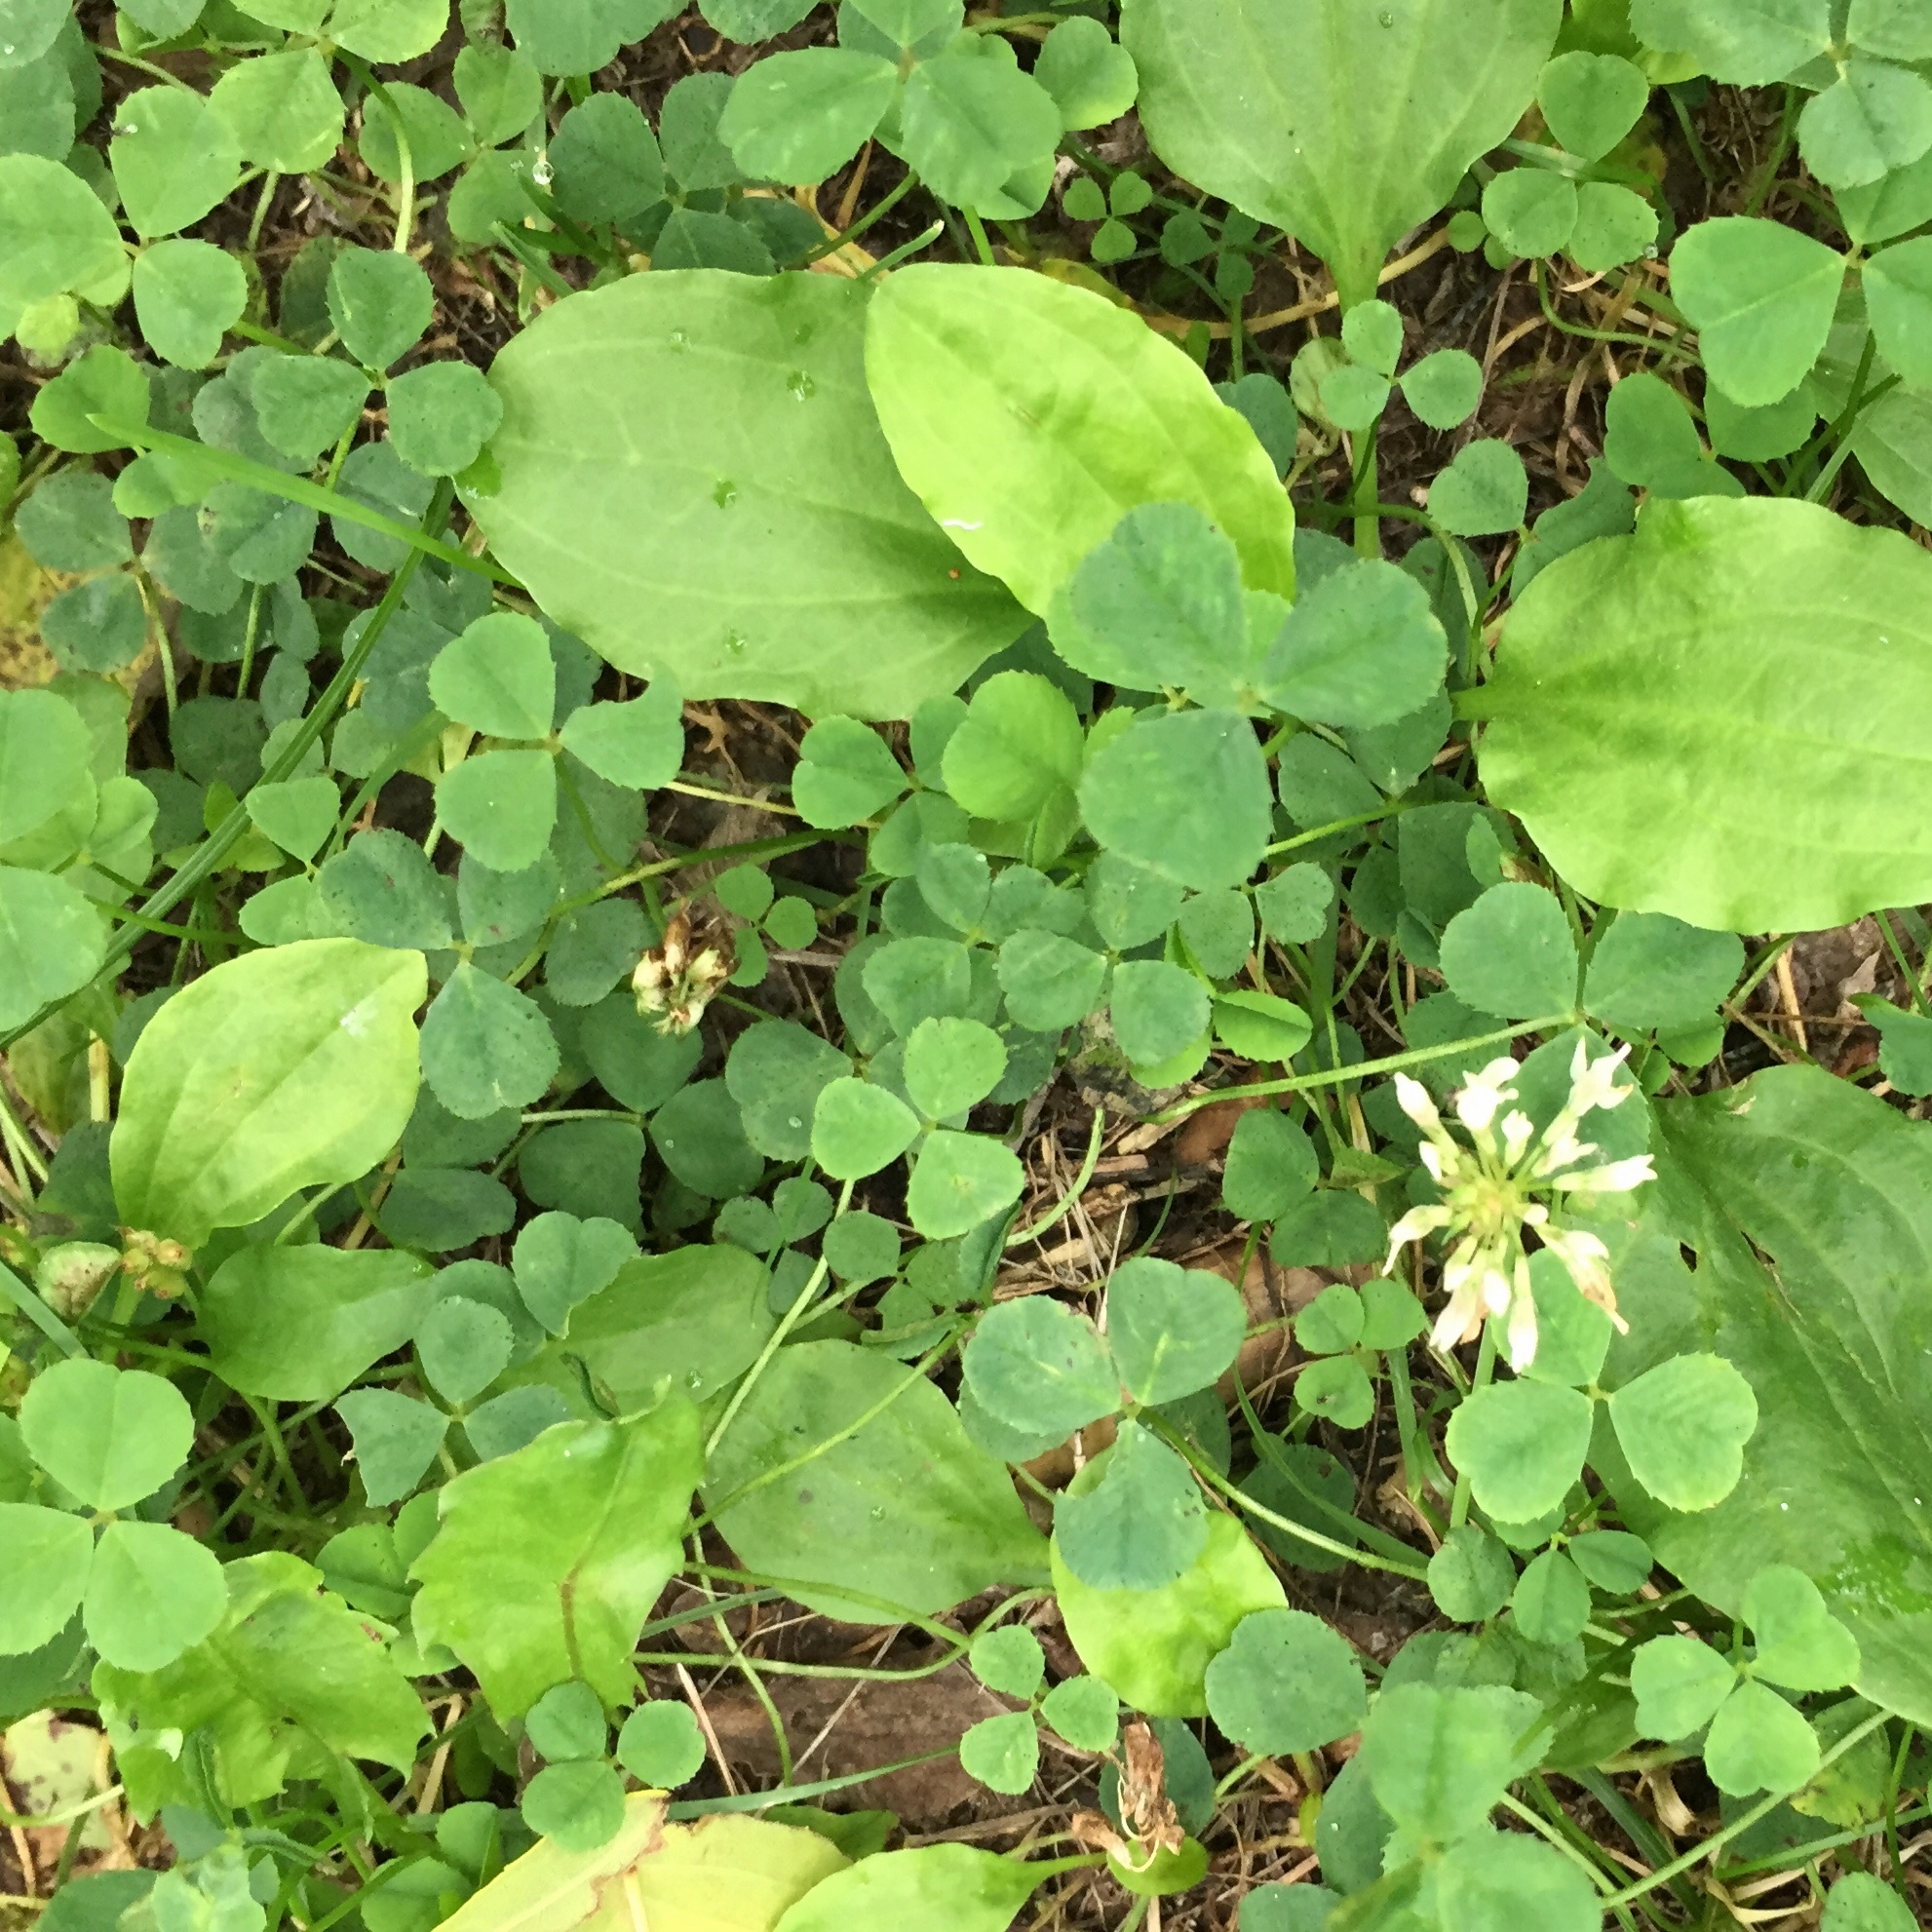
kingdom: Plantae
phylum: Tracheophyta
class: Magnoliopsida
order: Fabales
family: Fabaceae
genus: Trifolium
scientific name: Trifolium repens
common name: White clover
